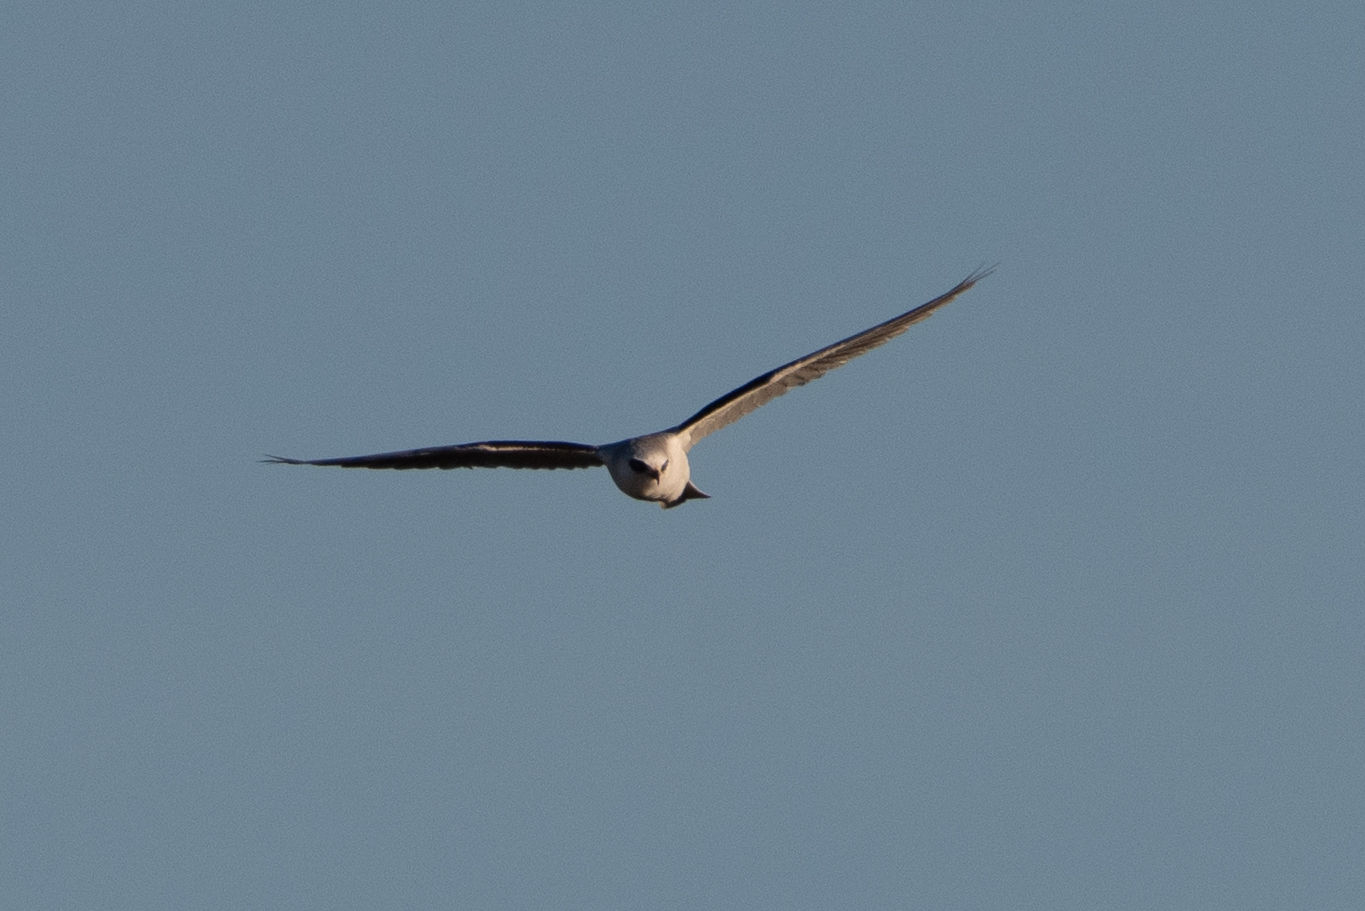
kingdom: Animalia
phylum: Chordata
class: Aves
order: Accipitriformes
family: Accipitridae
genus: Elanus
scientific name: Elanus leucurus
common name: White-tailed kite
